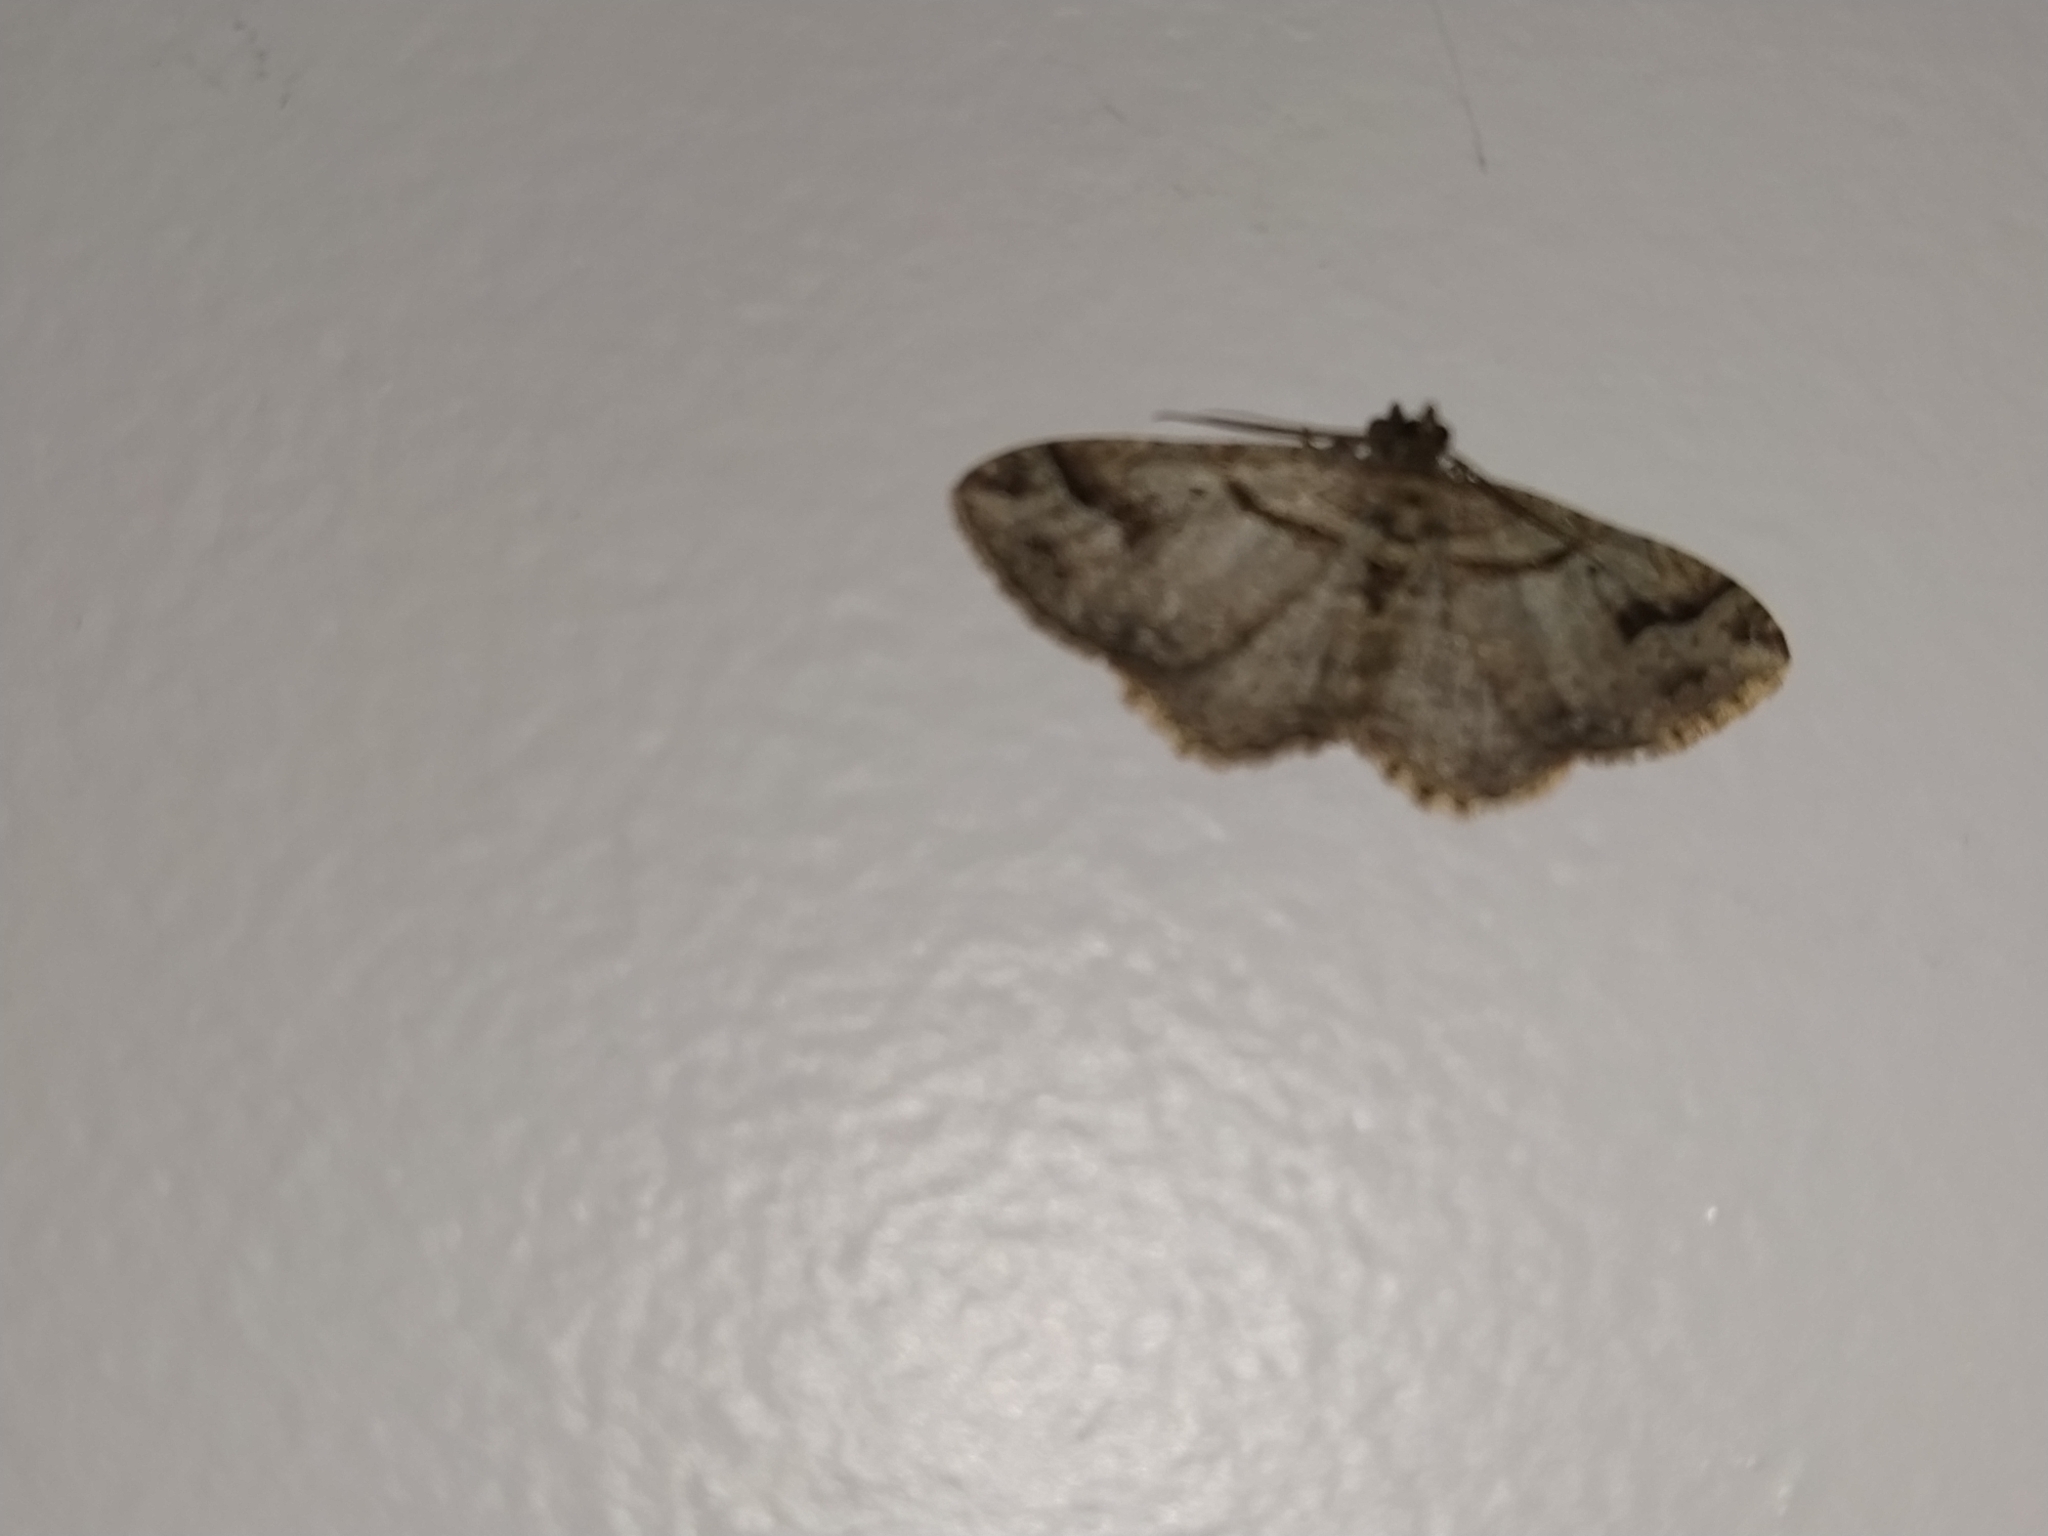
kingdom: Animalia
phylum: Arthropoda
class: Insecta
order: Lepidoptera
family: Geometridae
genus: Costaconvexa
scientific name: Costaconvexa centrostrigaria
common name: Bent-line carpet
